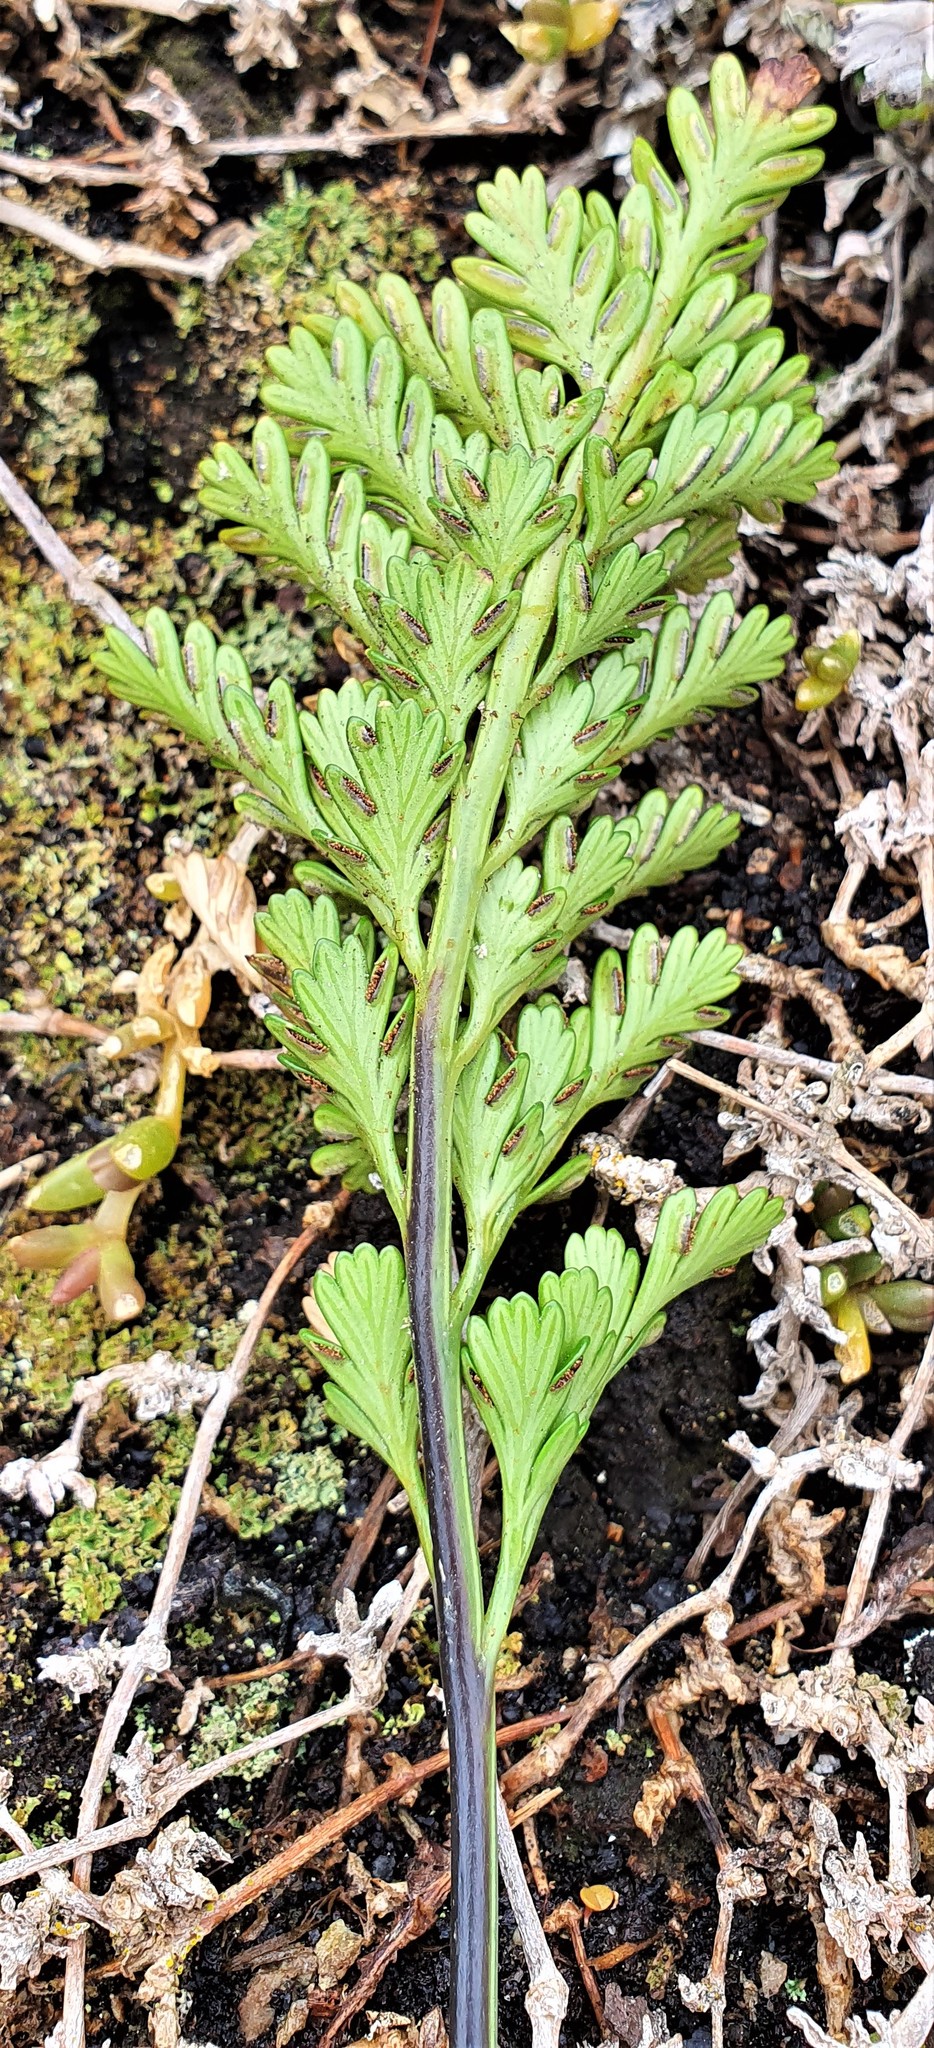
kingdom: Plantae
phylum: Tracheophyta
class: Polypodiopsida
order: Polypodiales
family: Aspleniaceae
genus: Asplenium
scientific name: Asplenium chathamense
